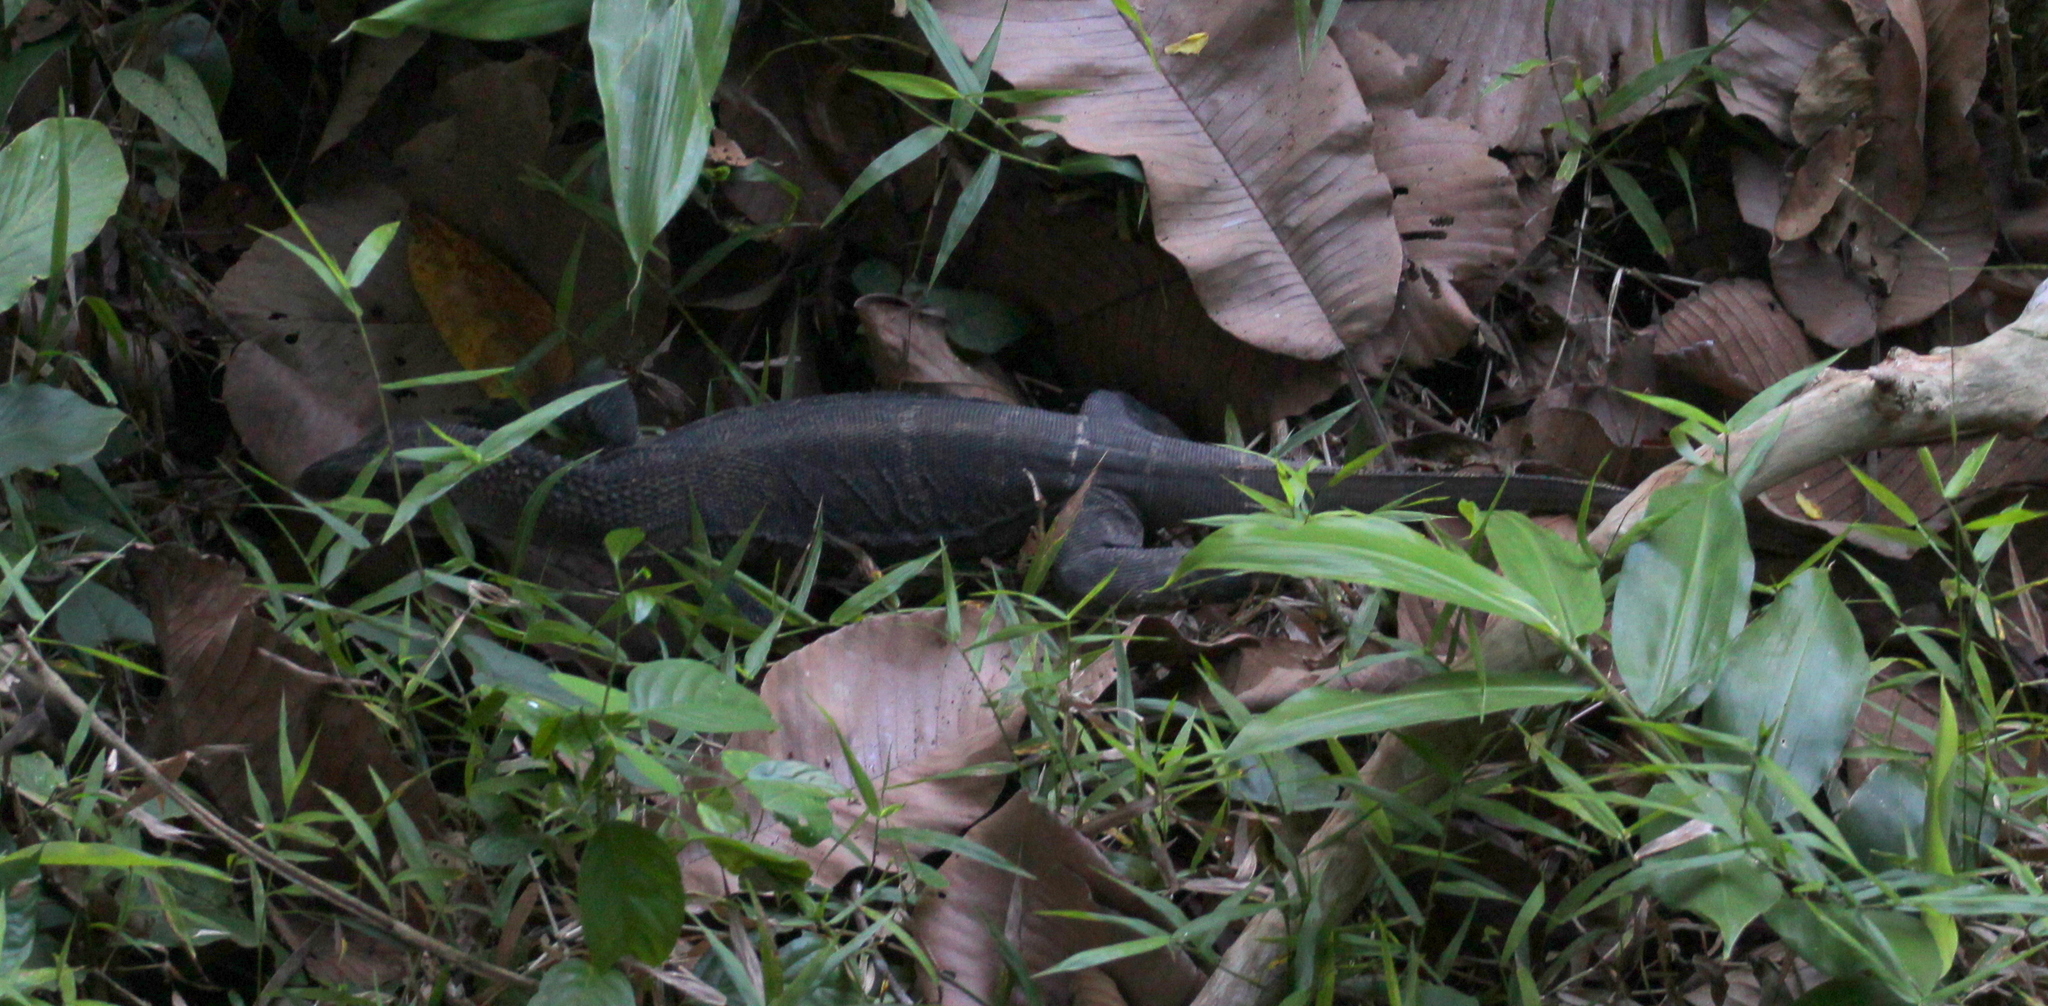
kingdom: Animalia
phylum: Chordata
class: Squamata
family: Varanidae
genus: Varanus
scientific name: Varanus rudicollis
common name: Roughneck monitor
